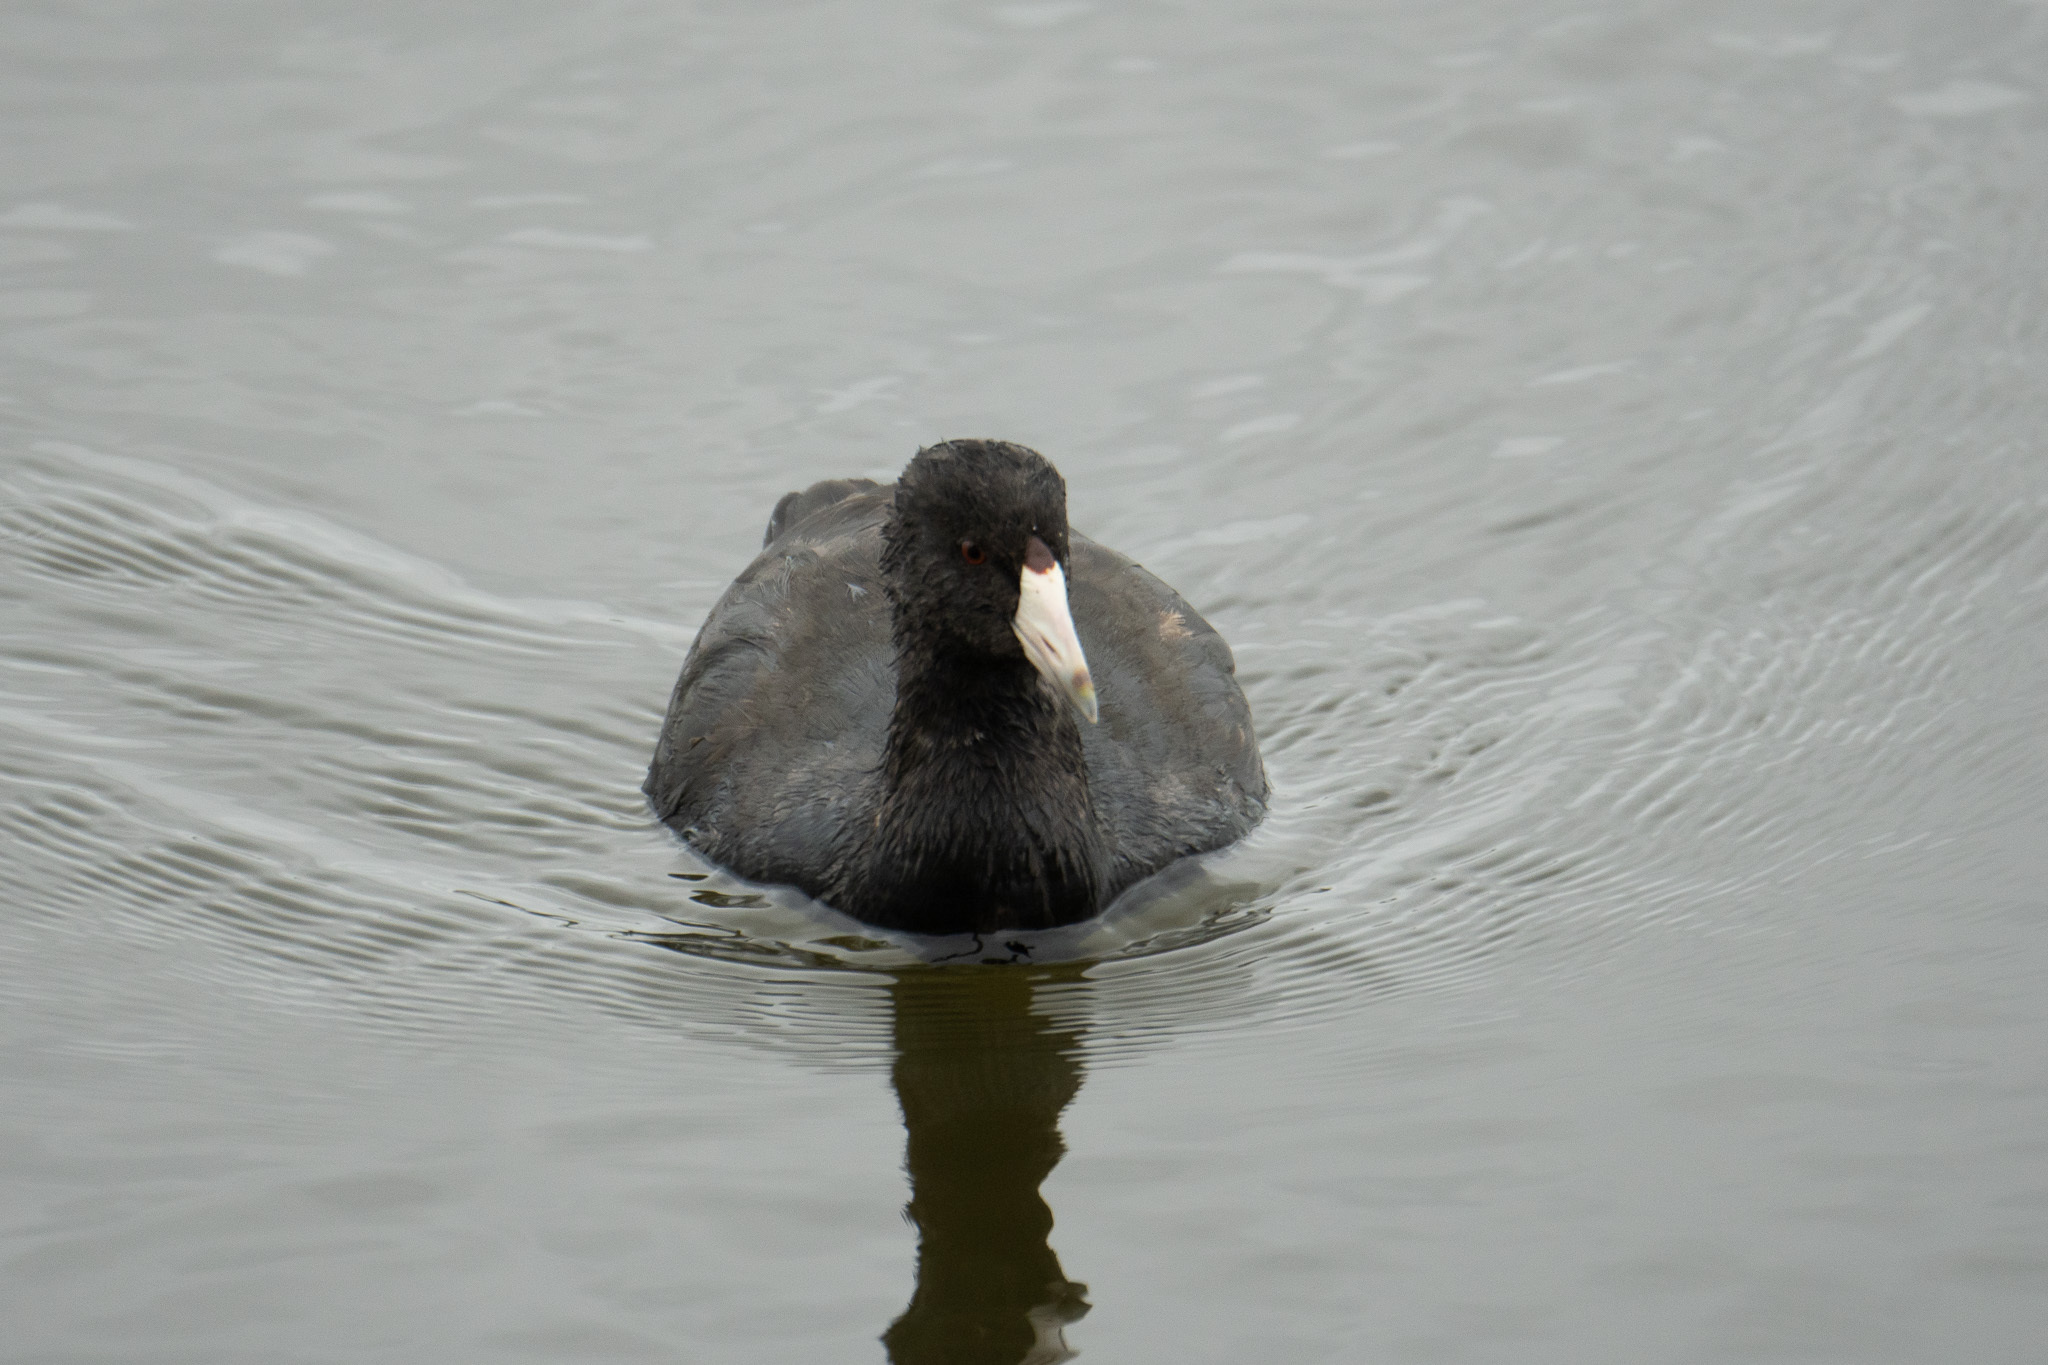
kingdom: Animalia
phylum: Chordata
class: Aves
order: Gruiformes
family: Rallidae
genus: Fulica
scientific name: Fulica americana
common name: American coot
